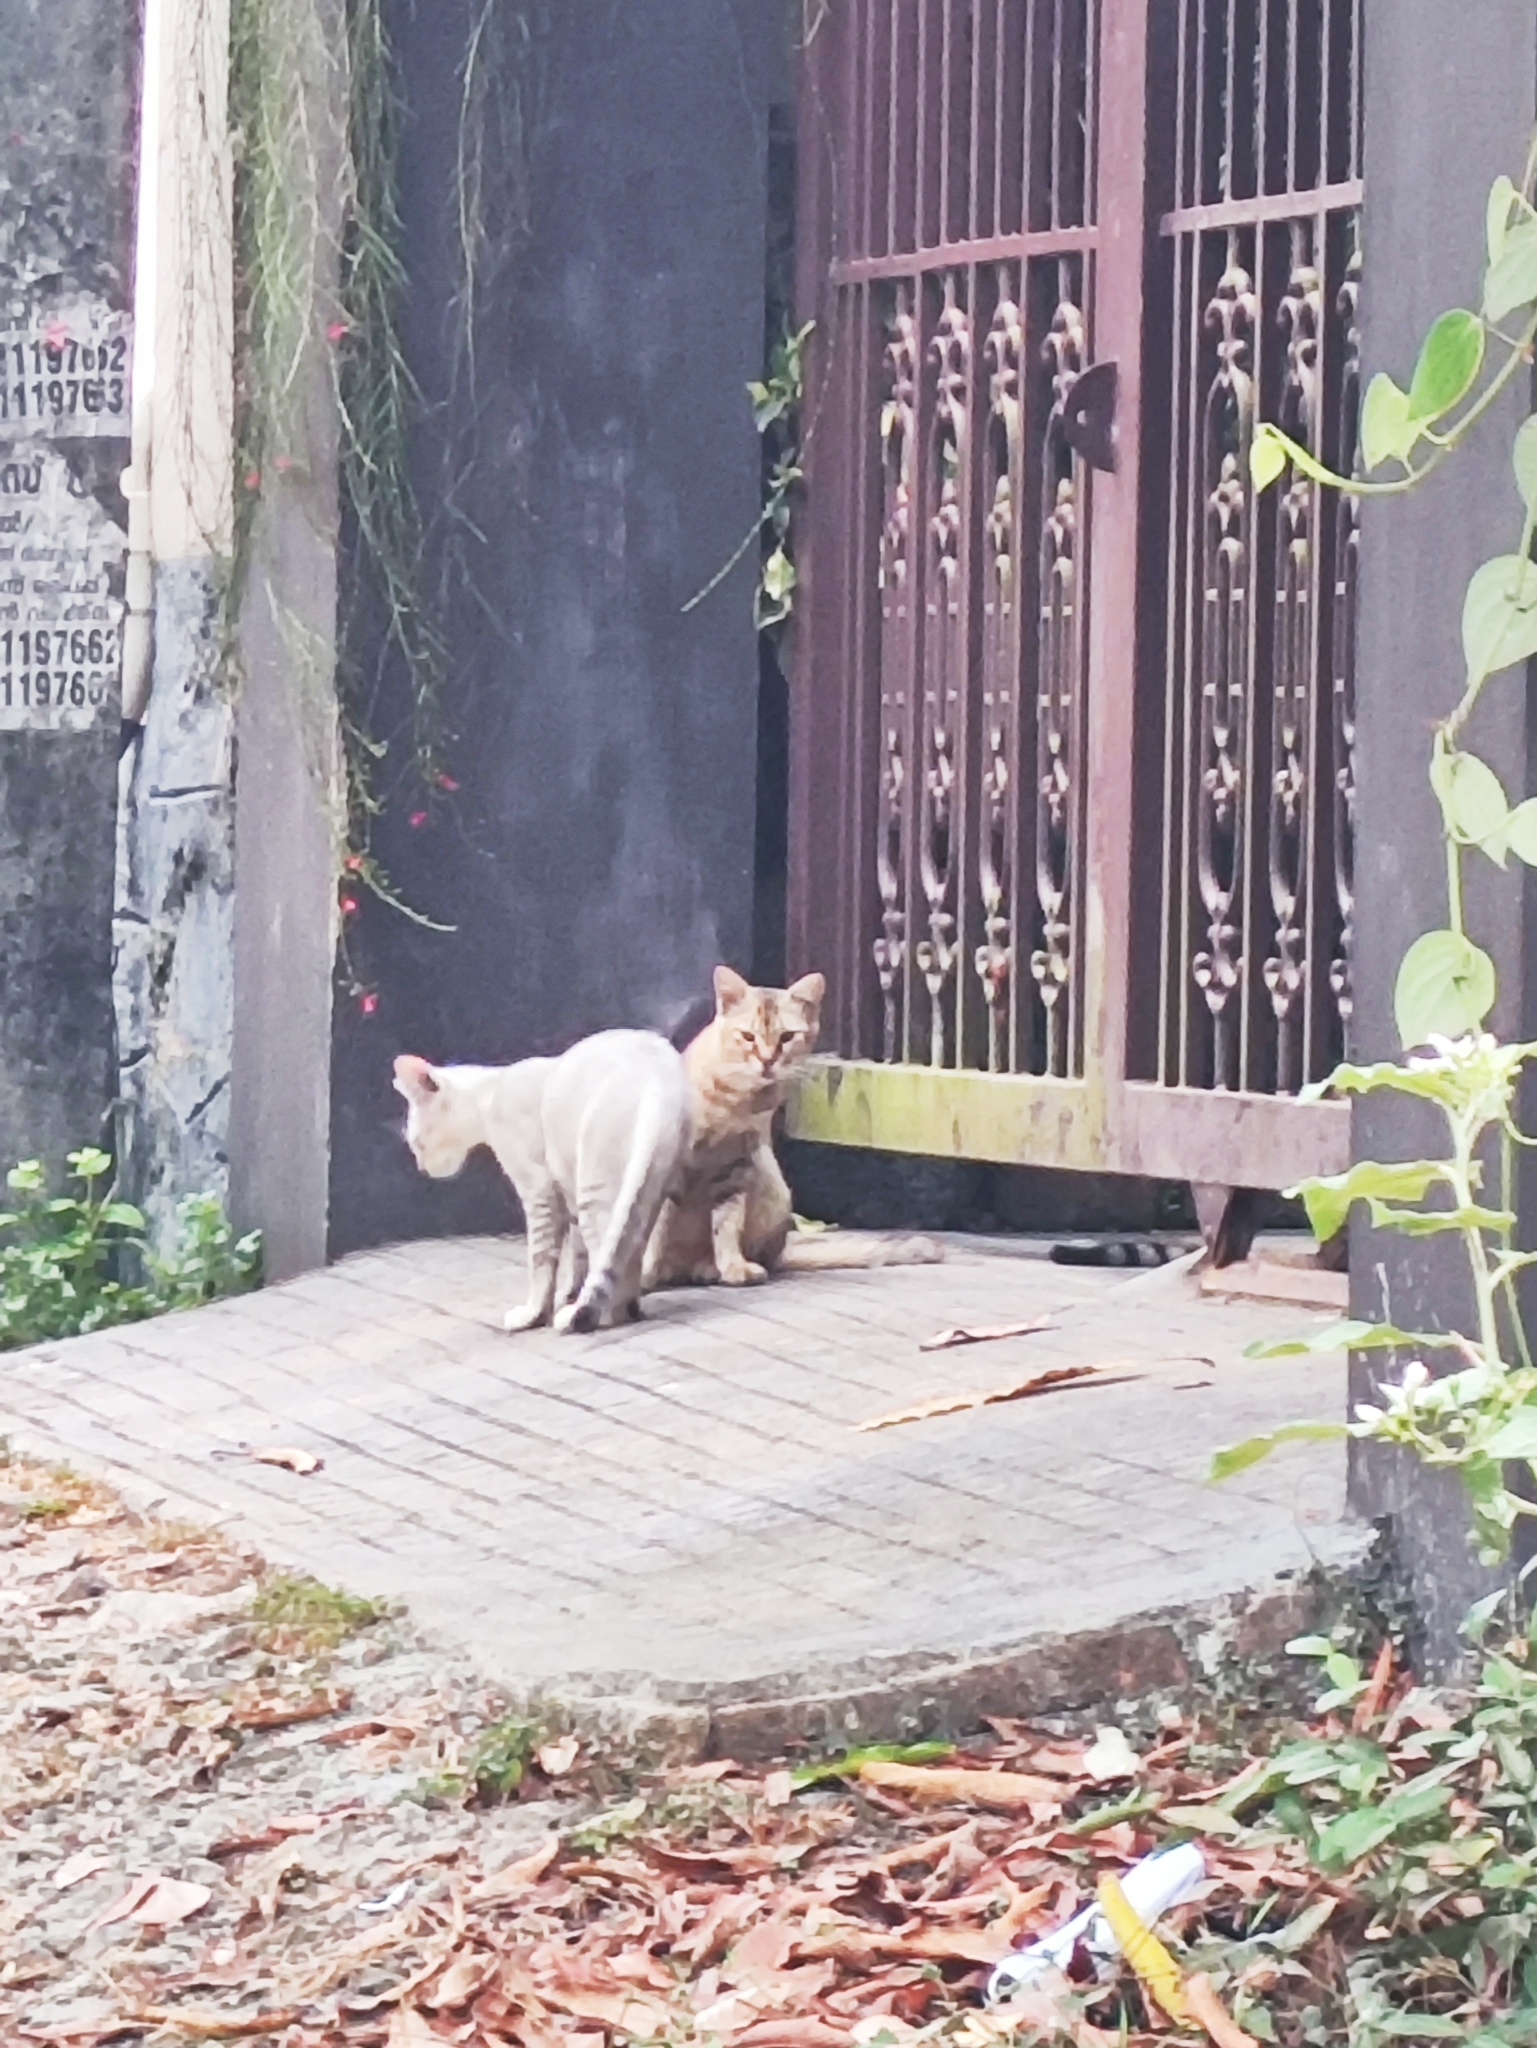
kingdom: Animalia
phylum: Chordata
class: Mammalia
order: Carnivora
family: Felidae
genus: Felis
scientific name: Felis catus
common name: Domestic cat
